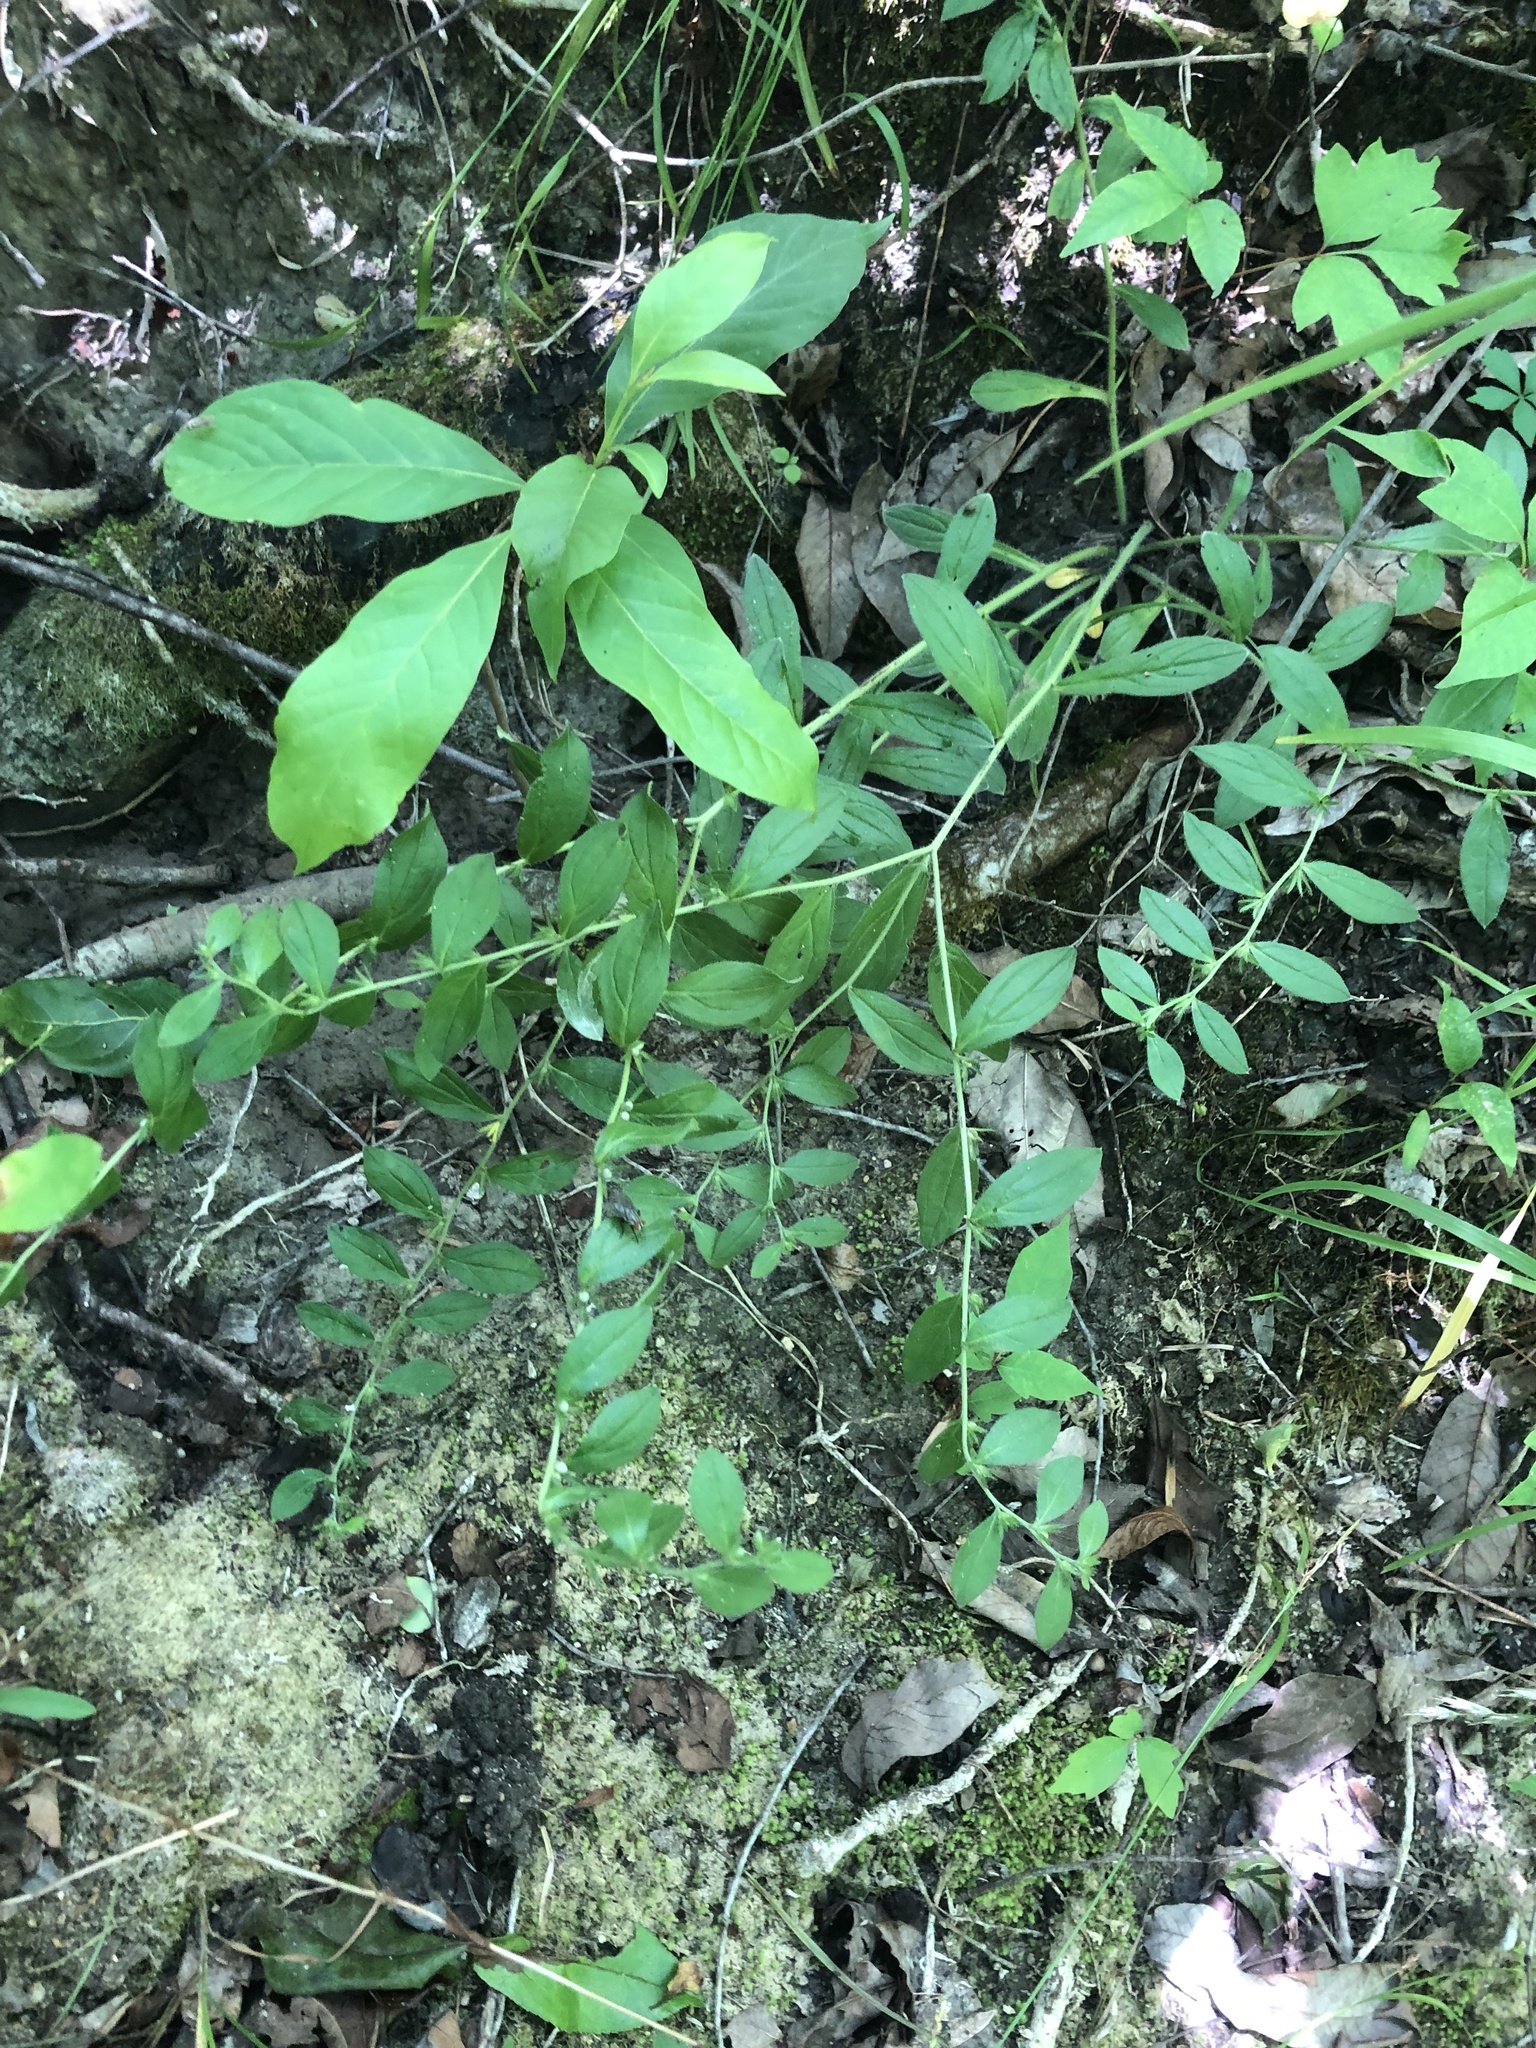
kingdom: Plantae
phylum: Tracheophyta
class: Magnoliopsida
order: Boraginales
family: Boraginaceae
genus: Lithospermum
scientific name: Lithospermum tuberosum
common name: Southern stoneseed
